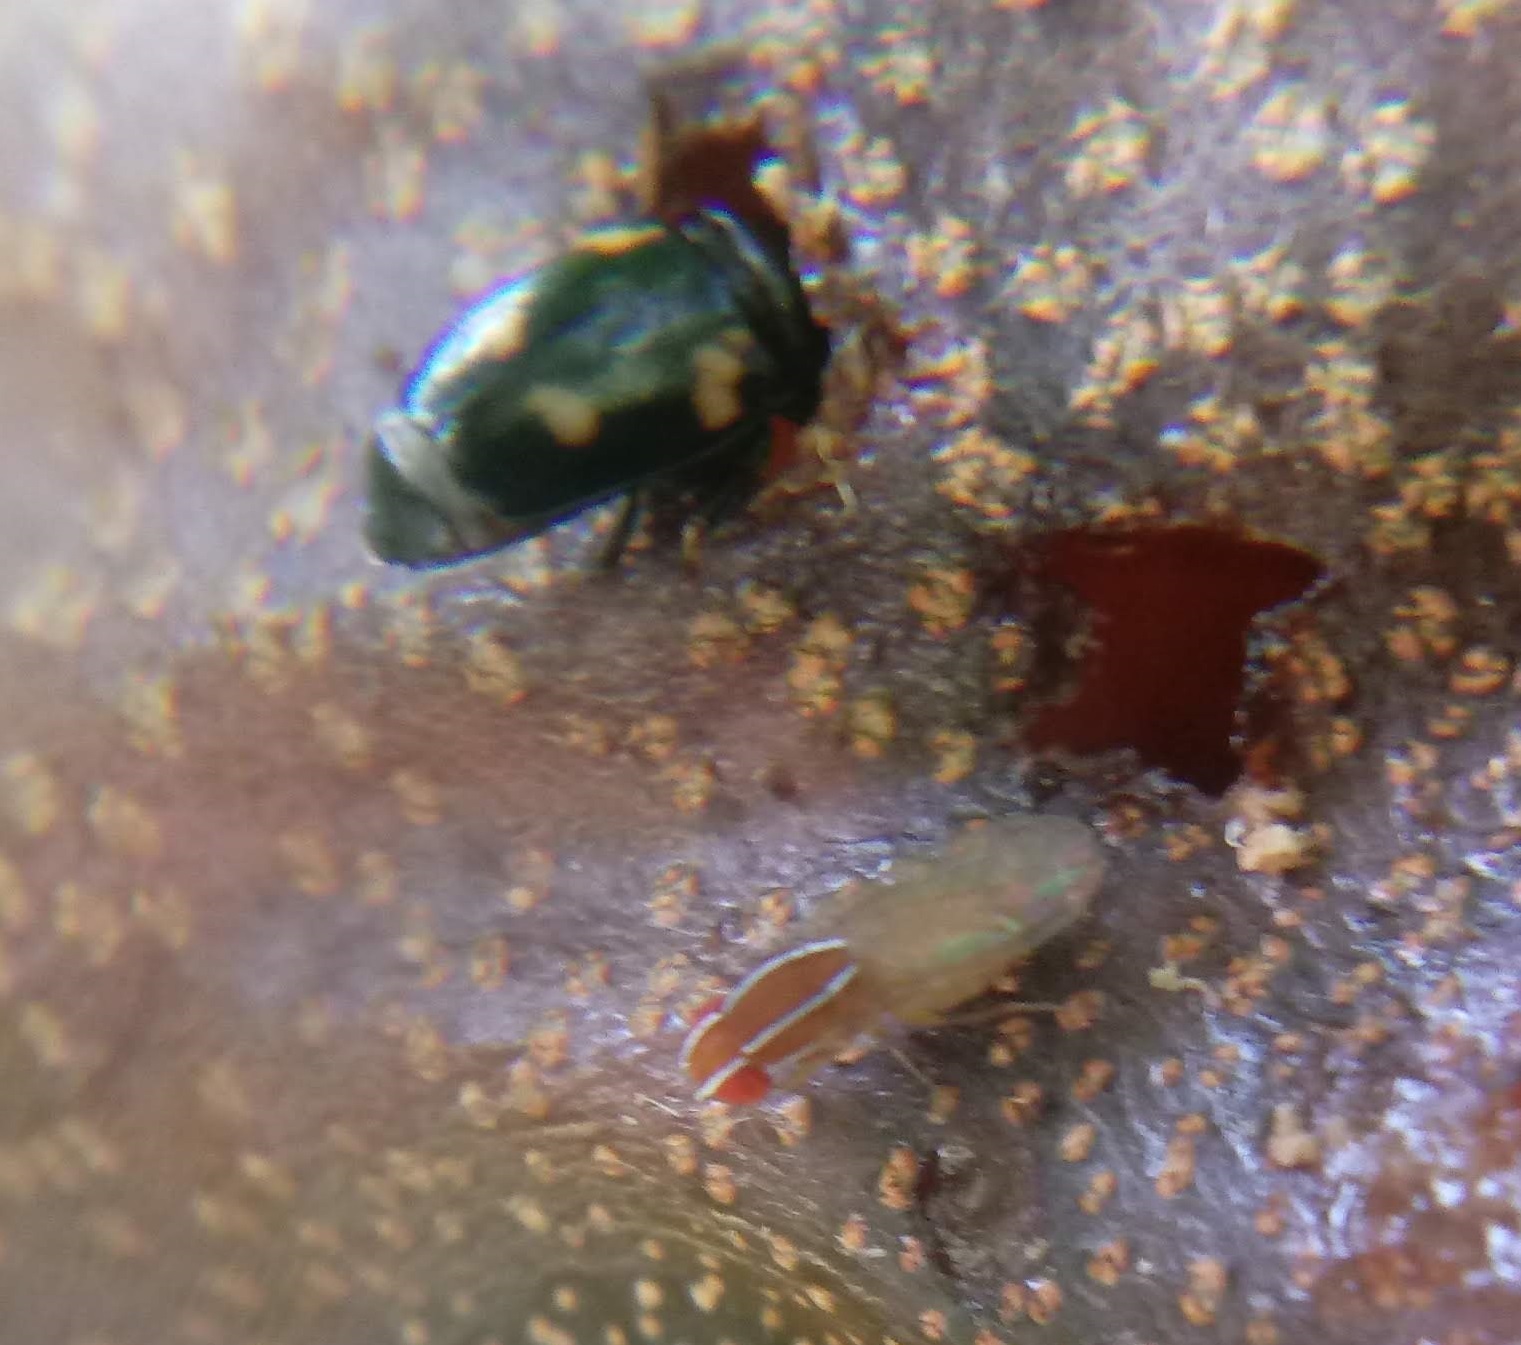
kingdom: Animalia
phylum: Arthropoda
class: Insecta
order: Coleoptera
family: Nitidulidae
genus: Glischrochilus
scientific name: Glischrochilus quadrisignatus
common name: Picnic beetle
